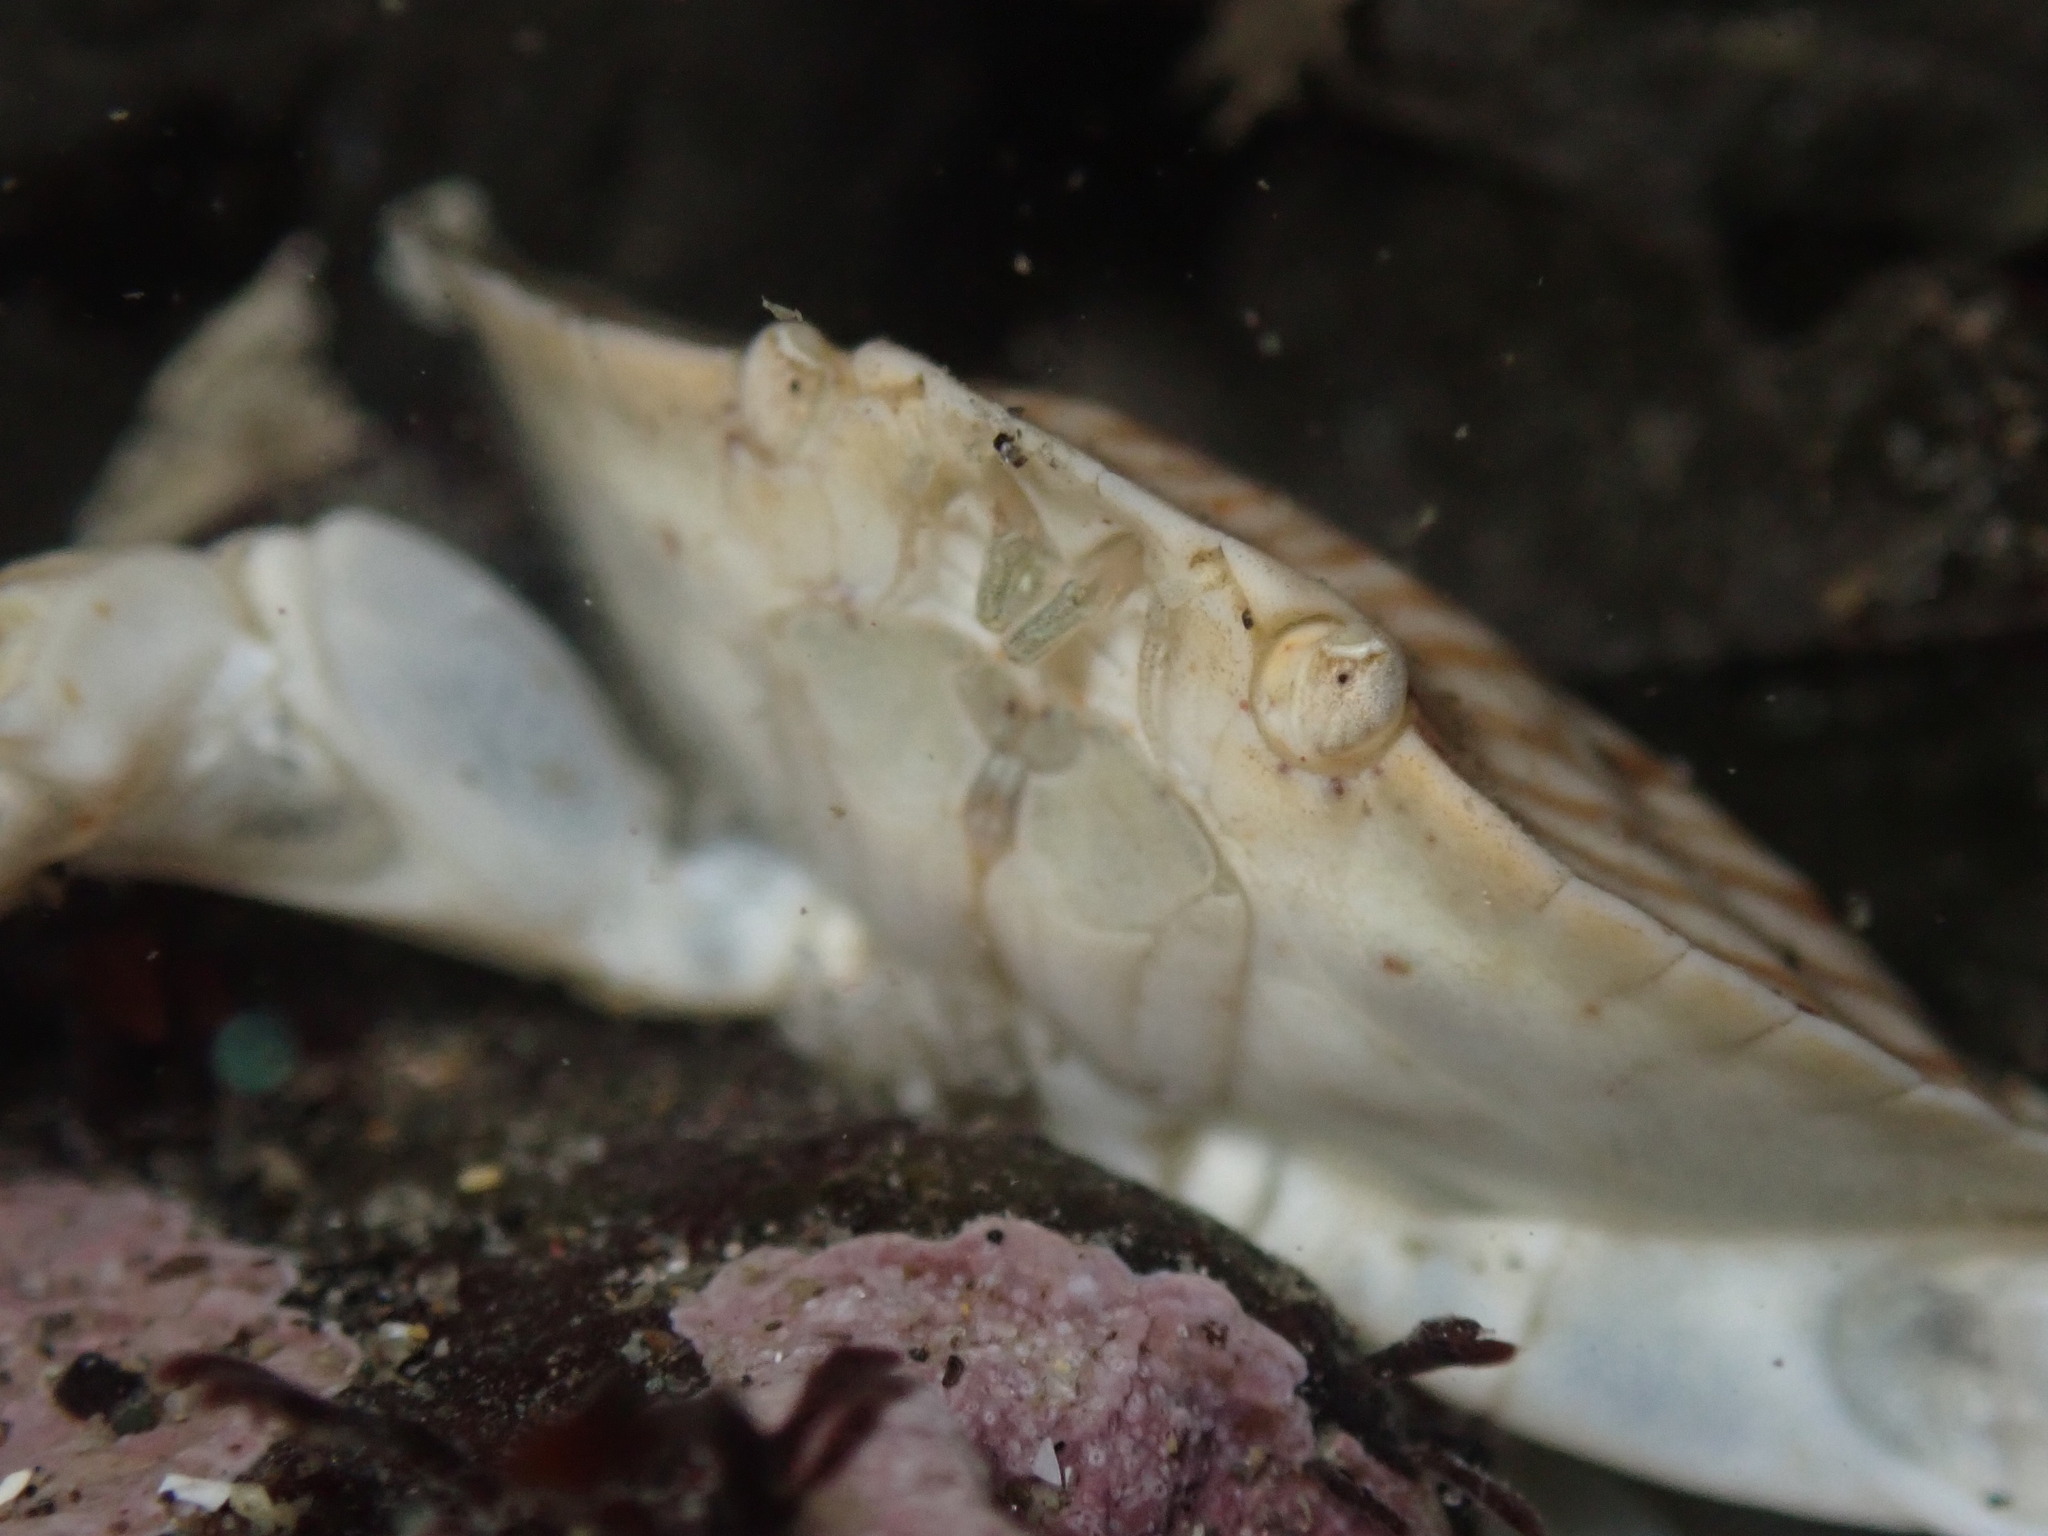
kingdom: Animalia
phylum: Arthropoda
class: Malacostraca
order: Decapoda
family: Cancridae
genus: Cancer
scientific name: Cancer productus
